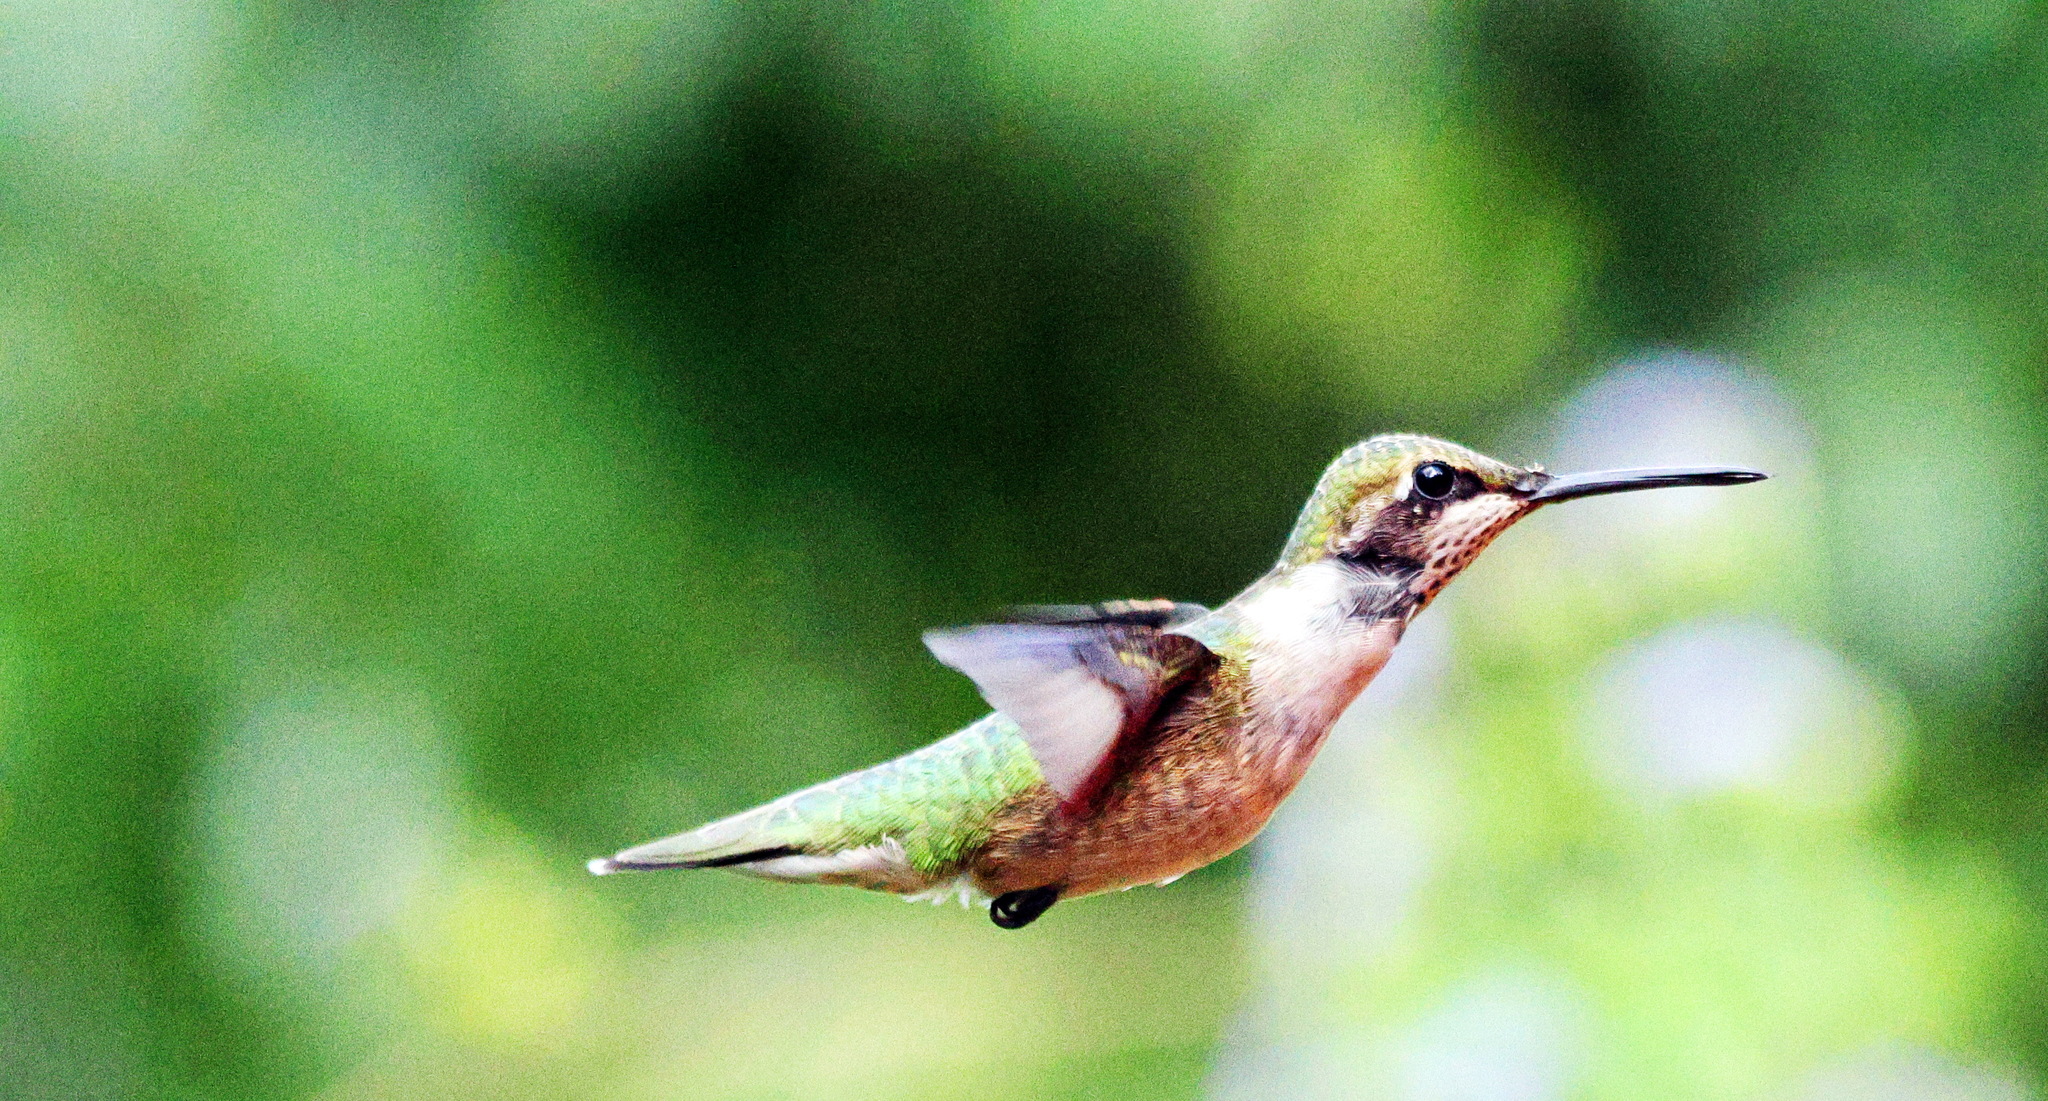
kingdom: Animalia
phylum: Chordata
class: Aves
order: Apodiformes
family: Trochilidae
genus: Archilochus
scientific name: Archilochus colubris
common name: Ruby-throated hummingbird
